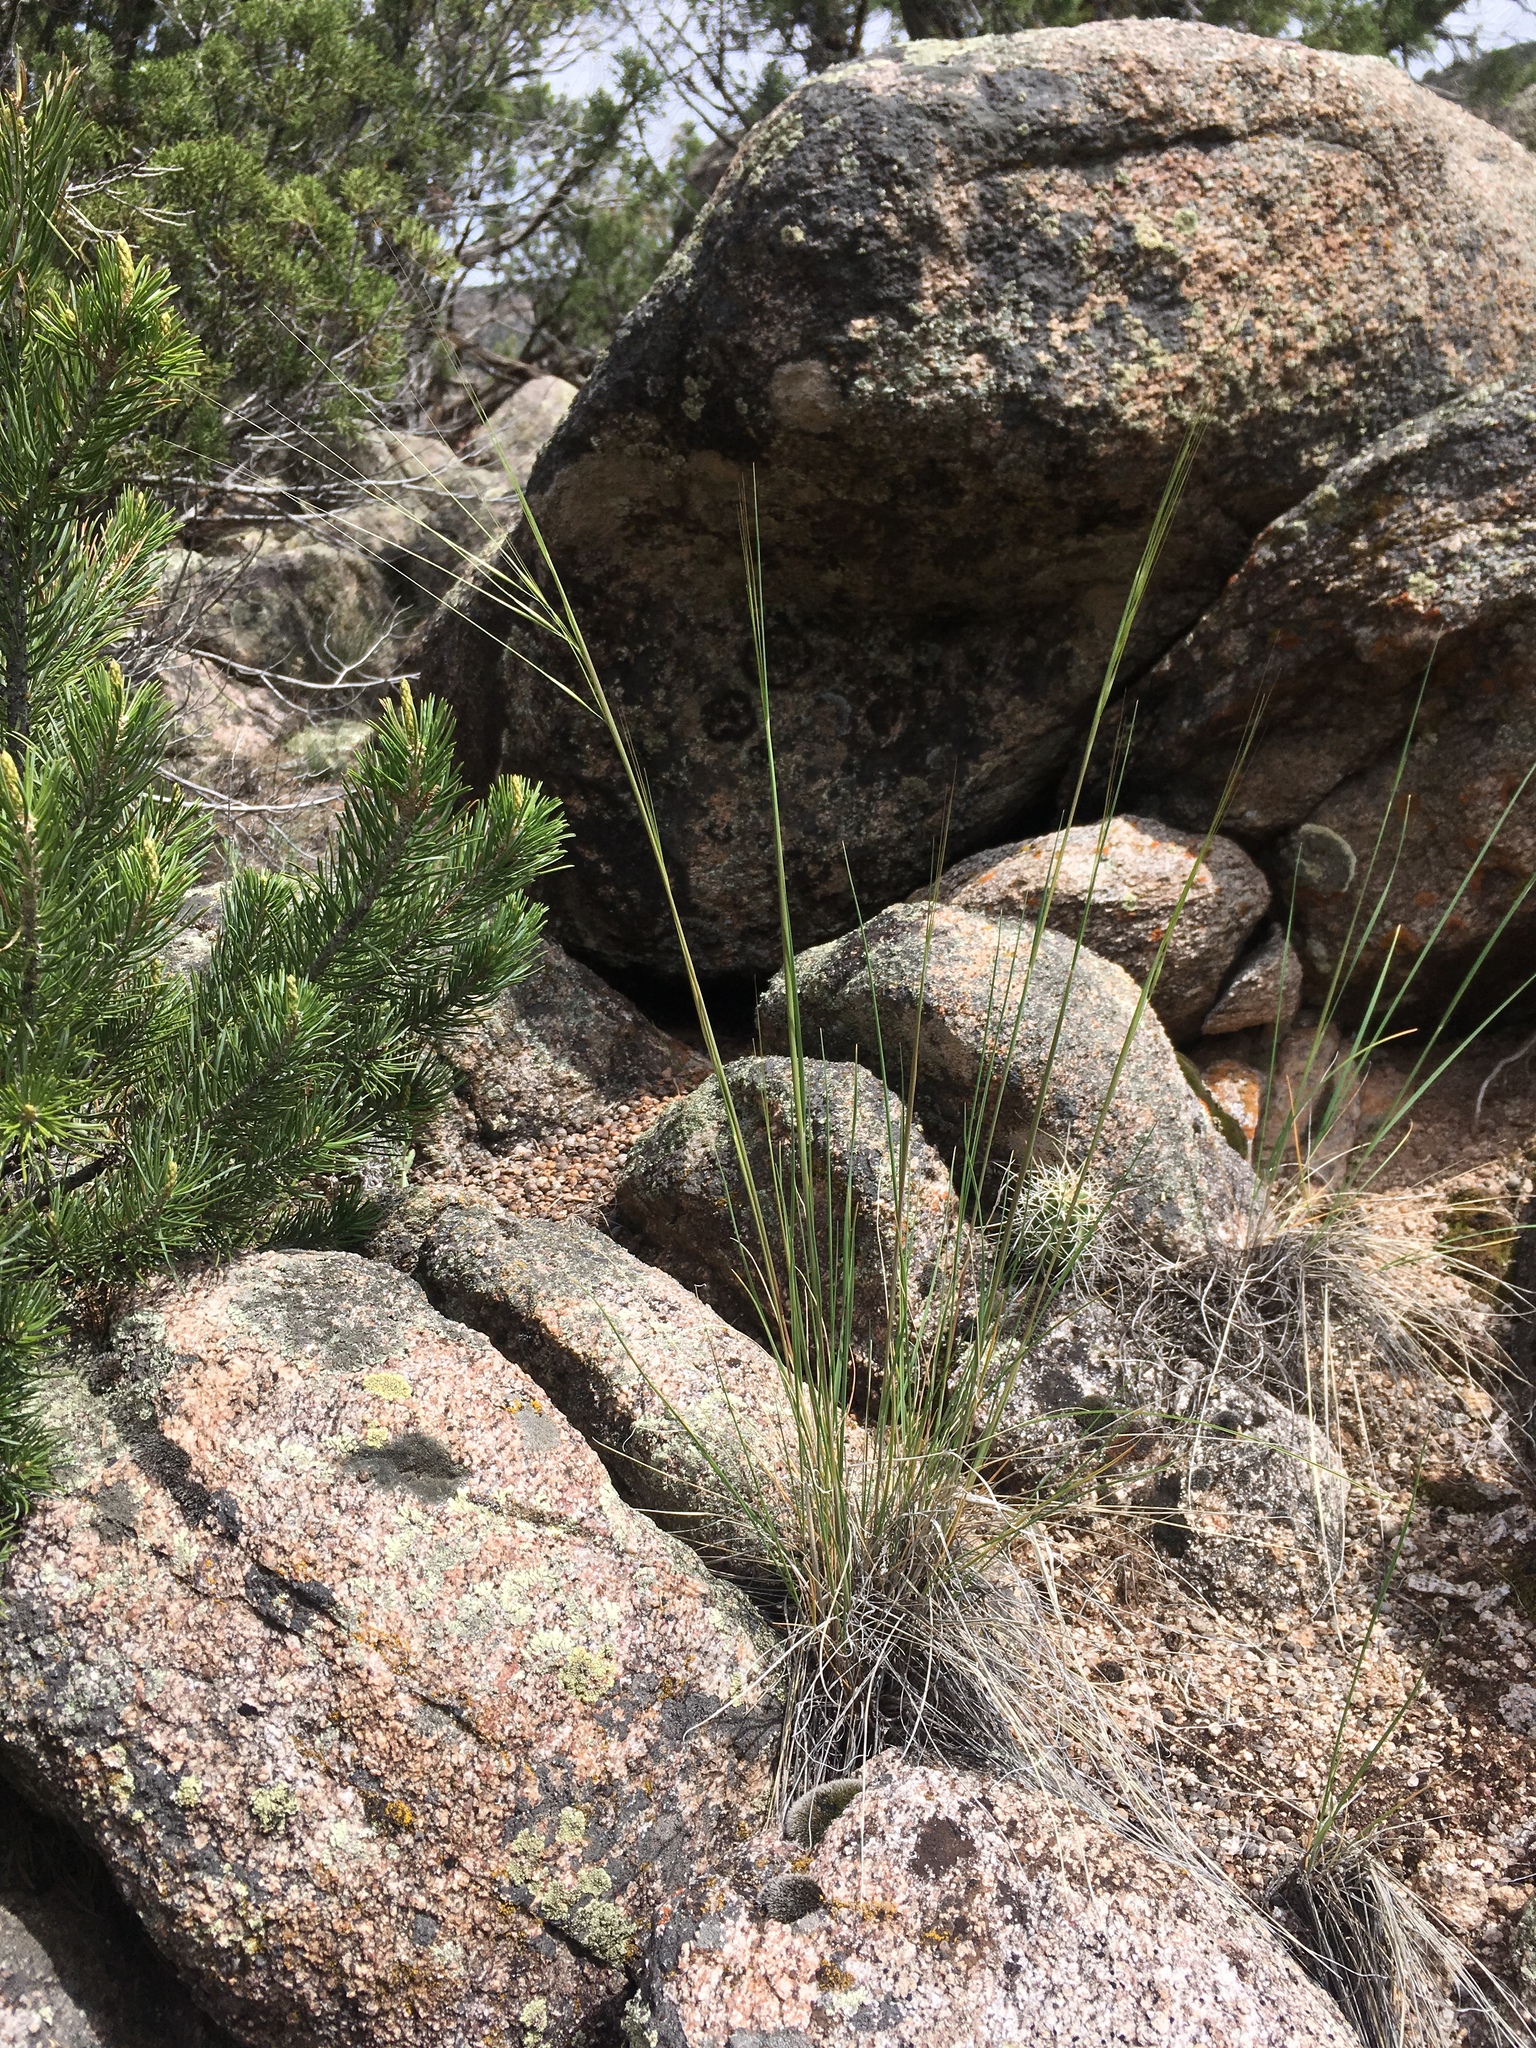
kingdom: Plantae
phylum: Tracheophyta
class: Liliopsida
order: Poales
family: Poaceae
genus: Hesperostipa
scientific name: Hesperostipa comata
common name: Needle-and-thread grass
